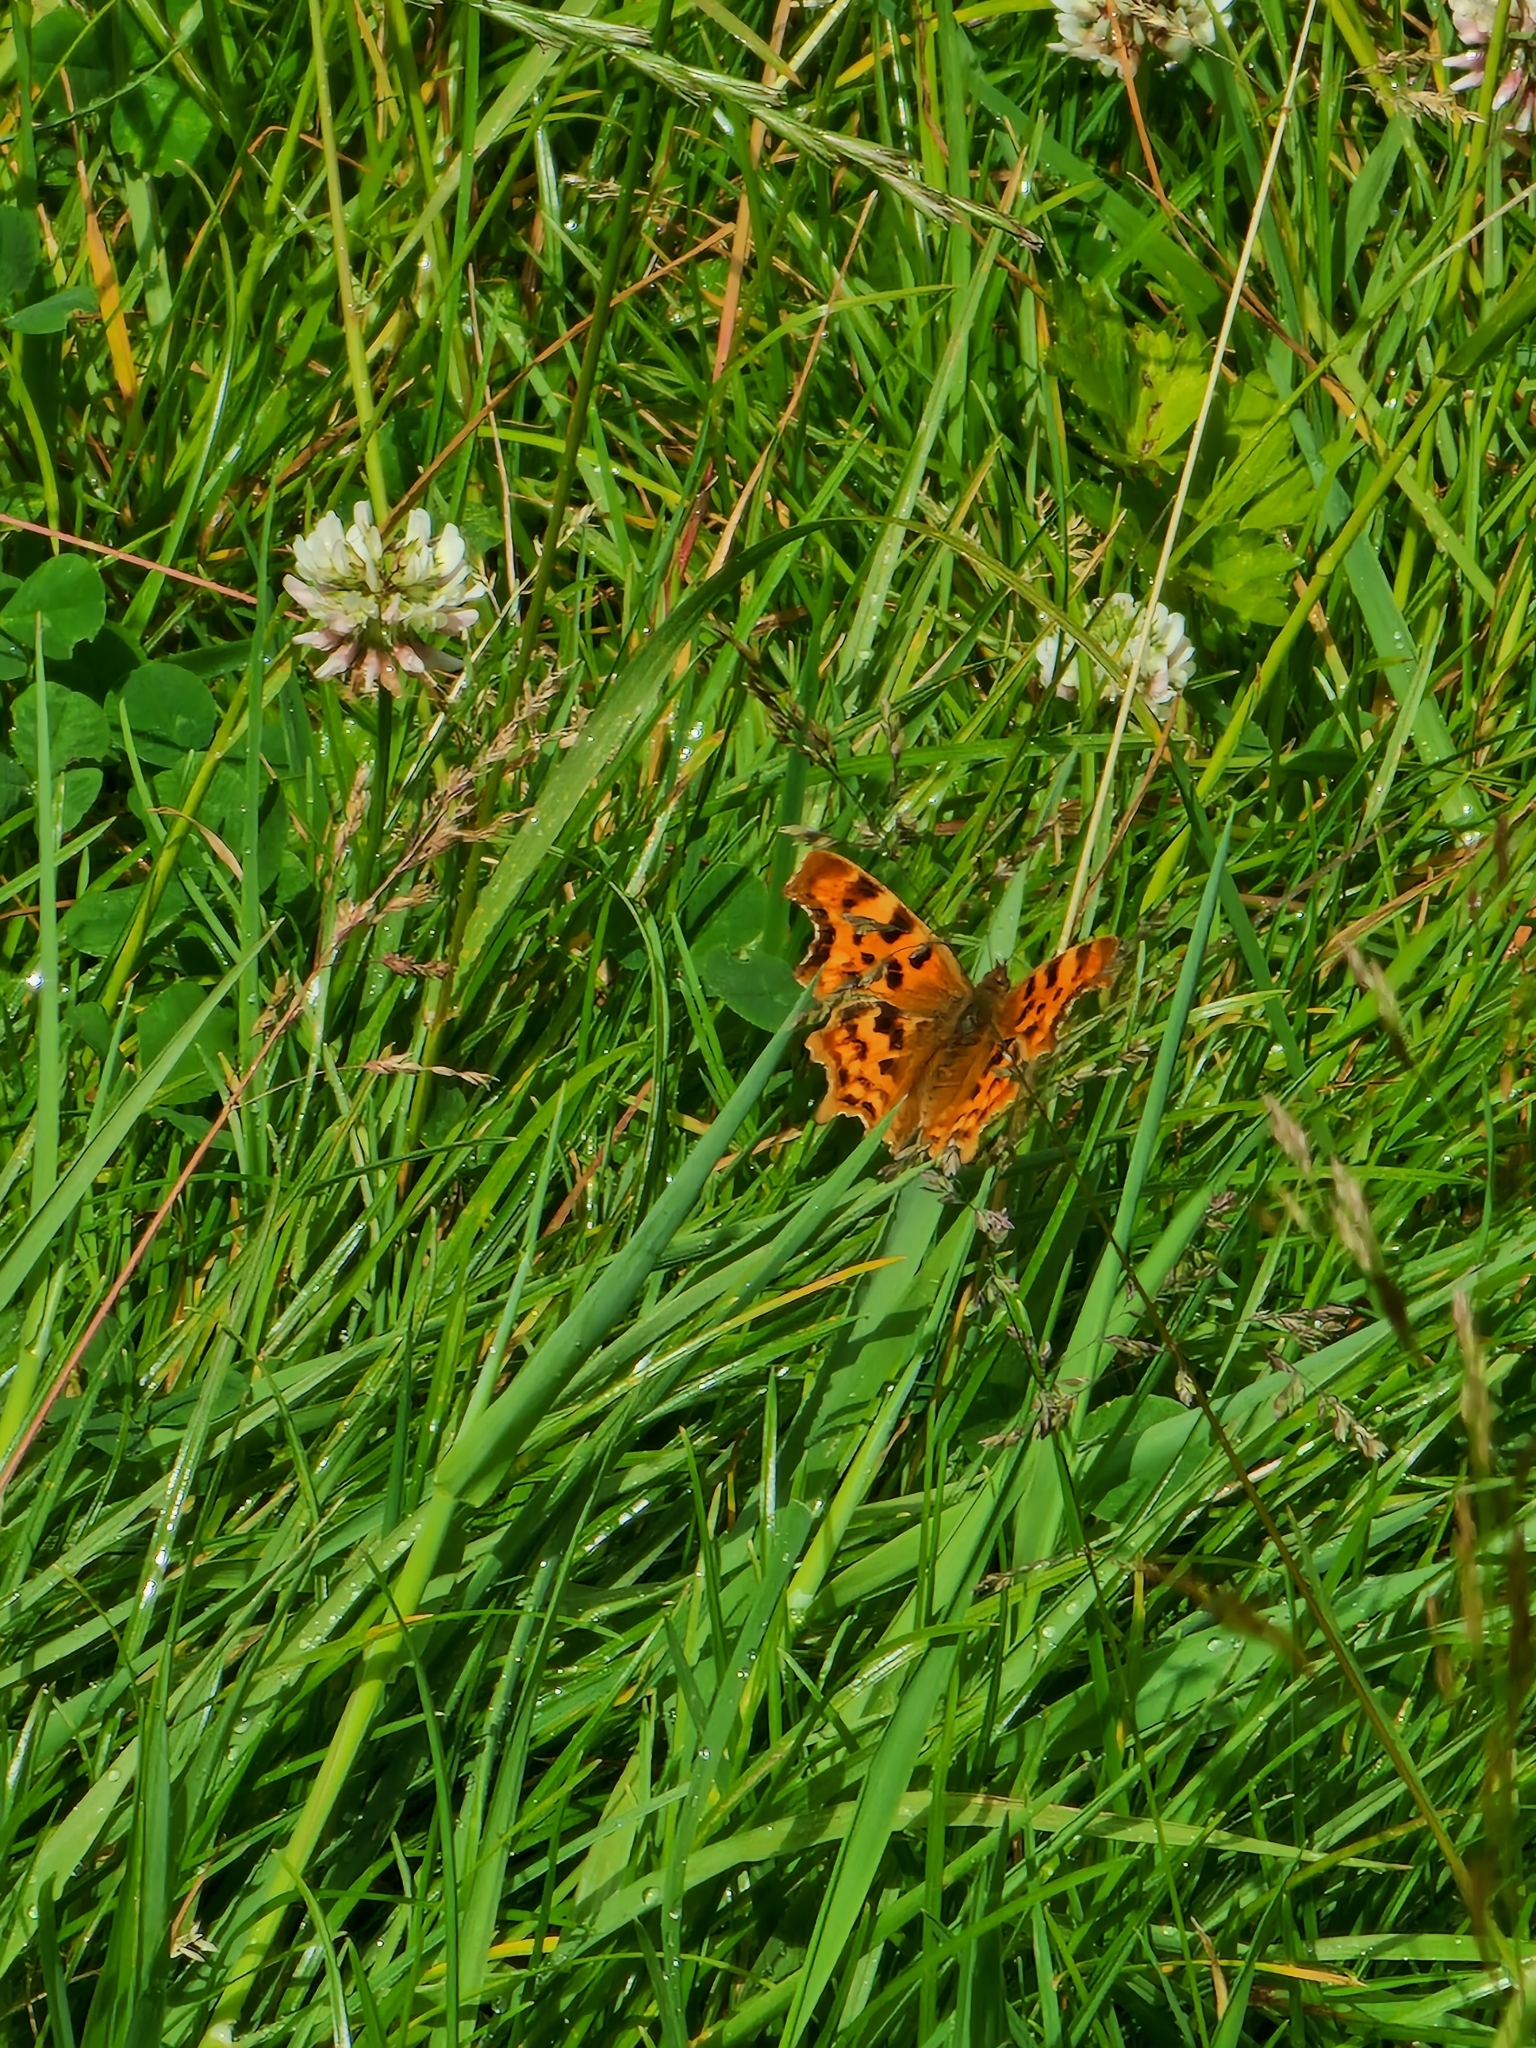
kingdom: Animalia
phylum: Arthropoda
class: Insecta
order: Lepidoptera
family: Nymphalidae
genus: Polygonia
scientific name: Polygonia c-album
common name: Comma
